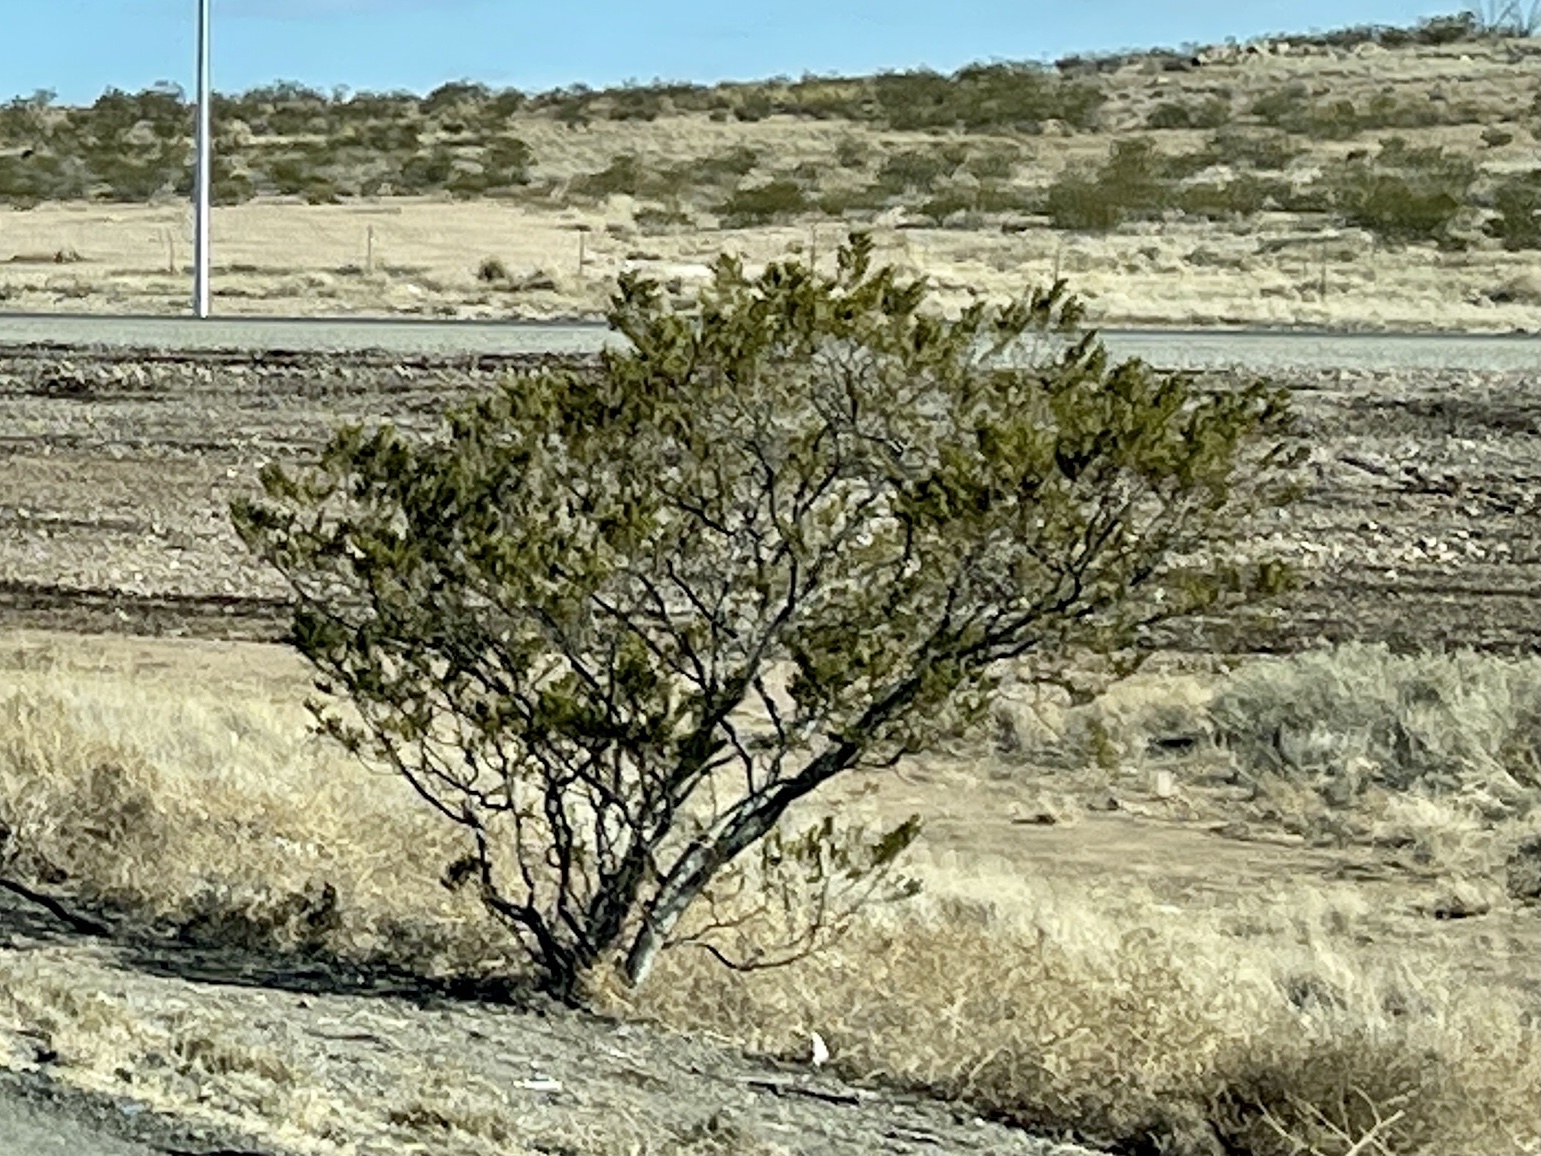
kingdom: Plantae
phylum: Tracheophyta
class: Magnoliopsida
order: Zygophyllales
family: Zygophyllaceae
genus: Larrea
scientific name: Larrea tridentata
